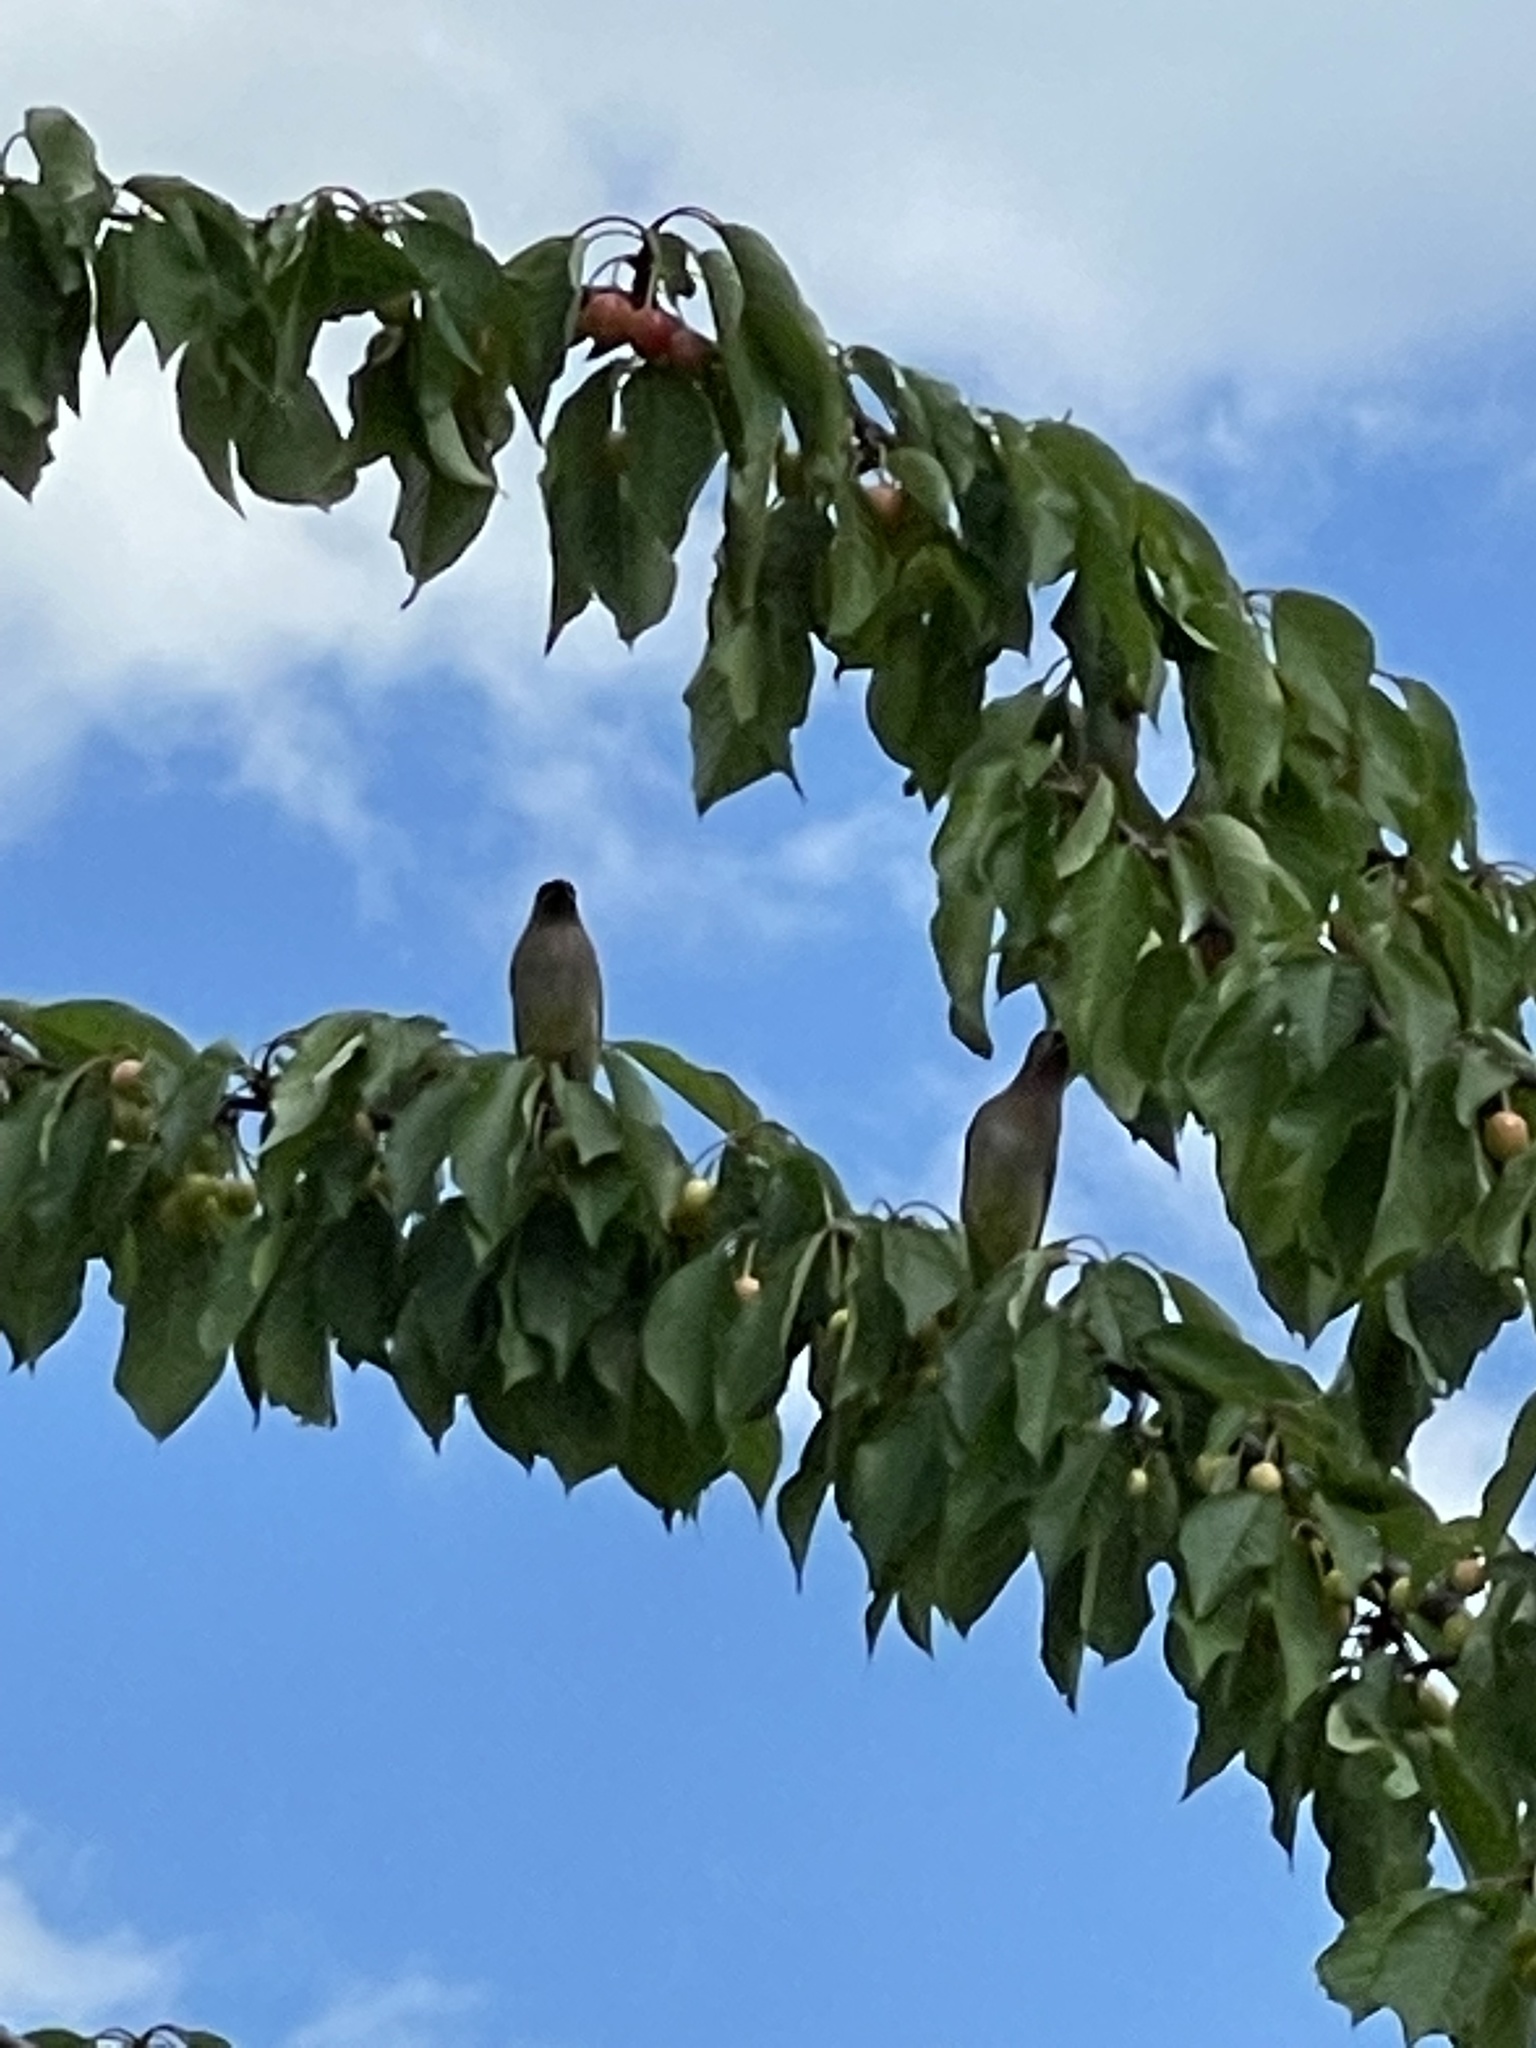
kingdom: Animalia
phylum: Chordata
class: Aves
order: Passeriformes
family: Bombycillidae
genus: Bombycilla
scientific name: Bombycilla cedrorum
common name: Cedar waxwing
